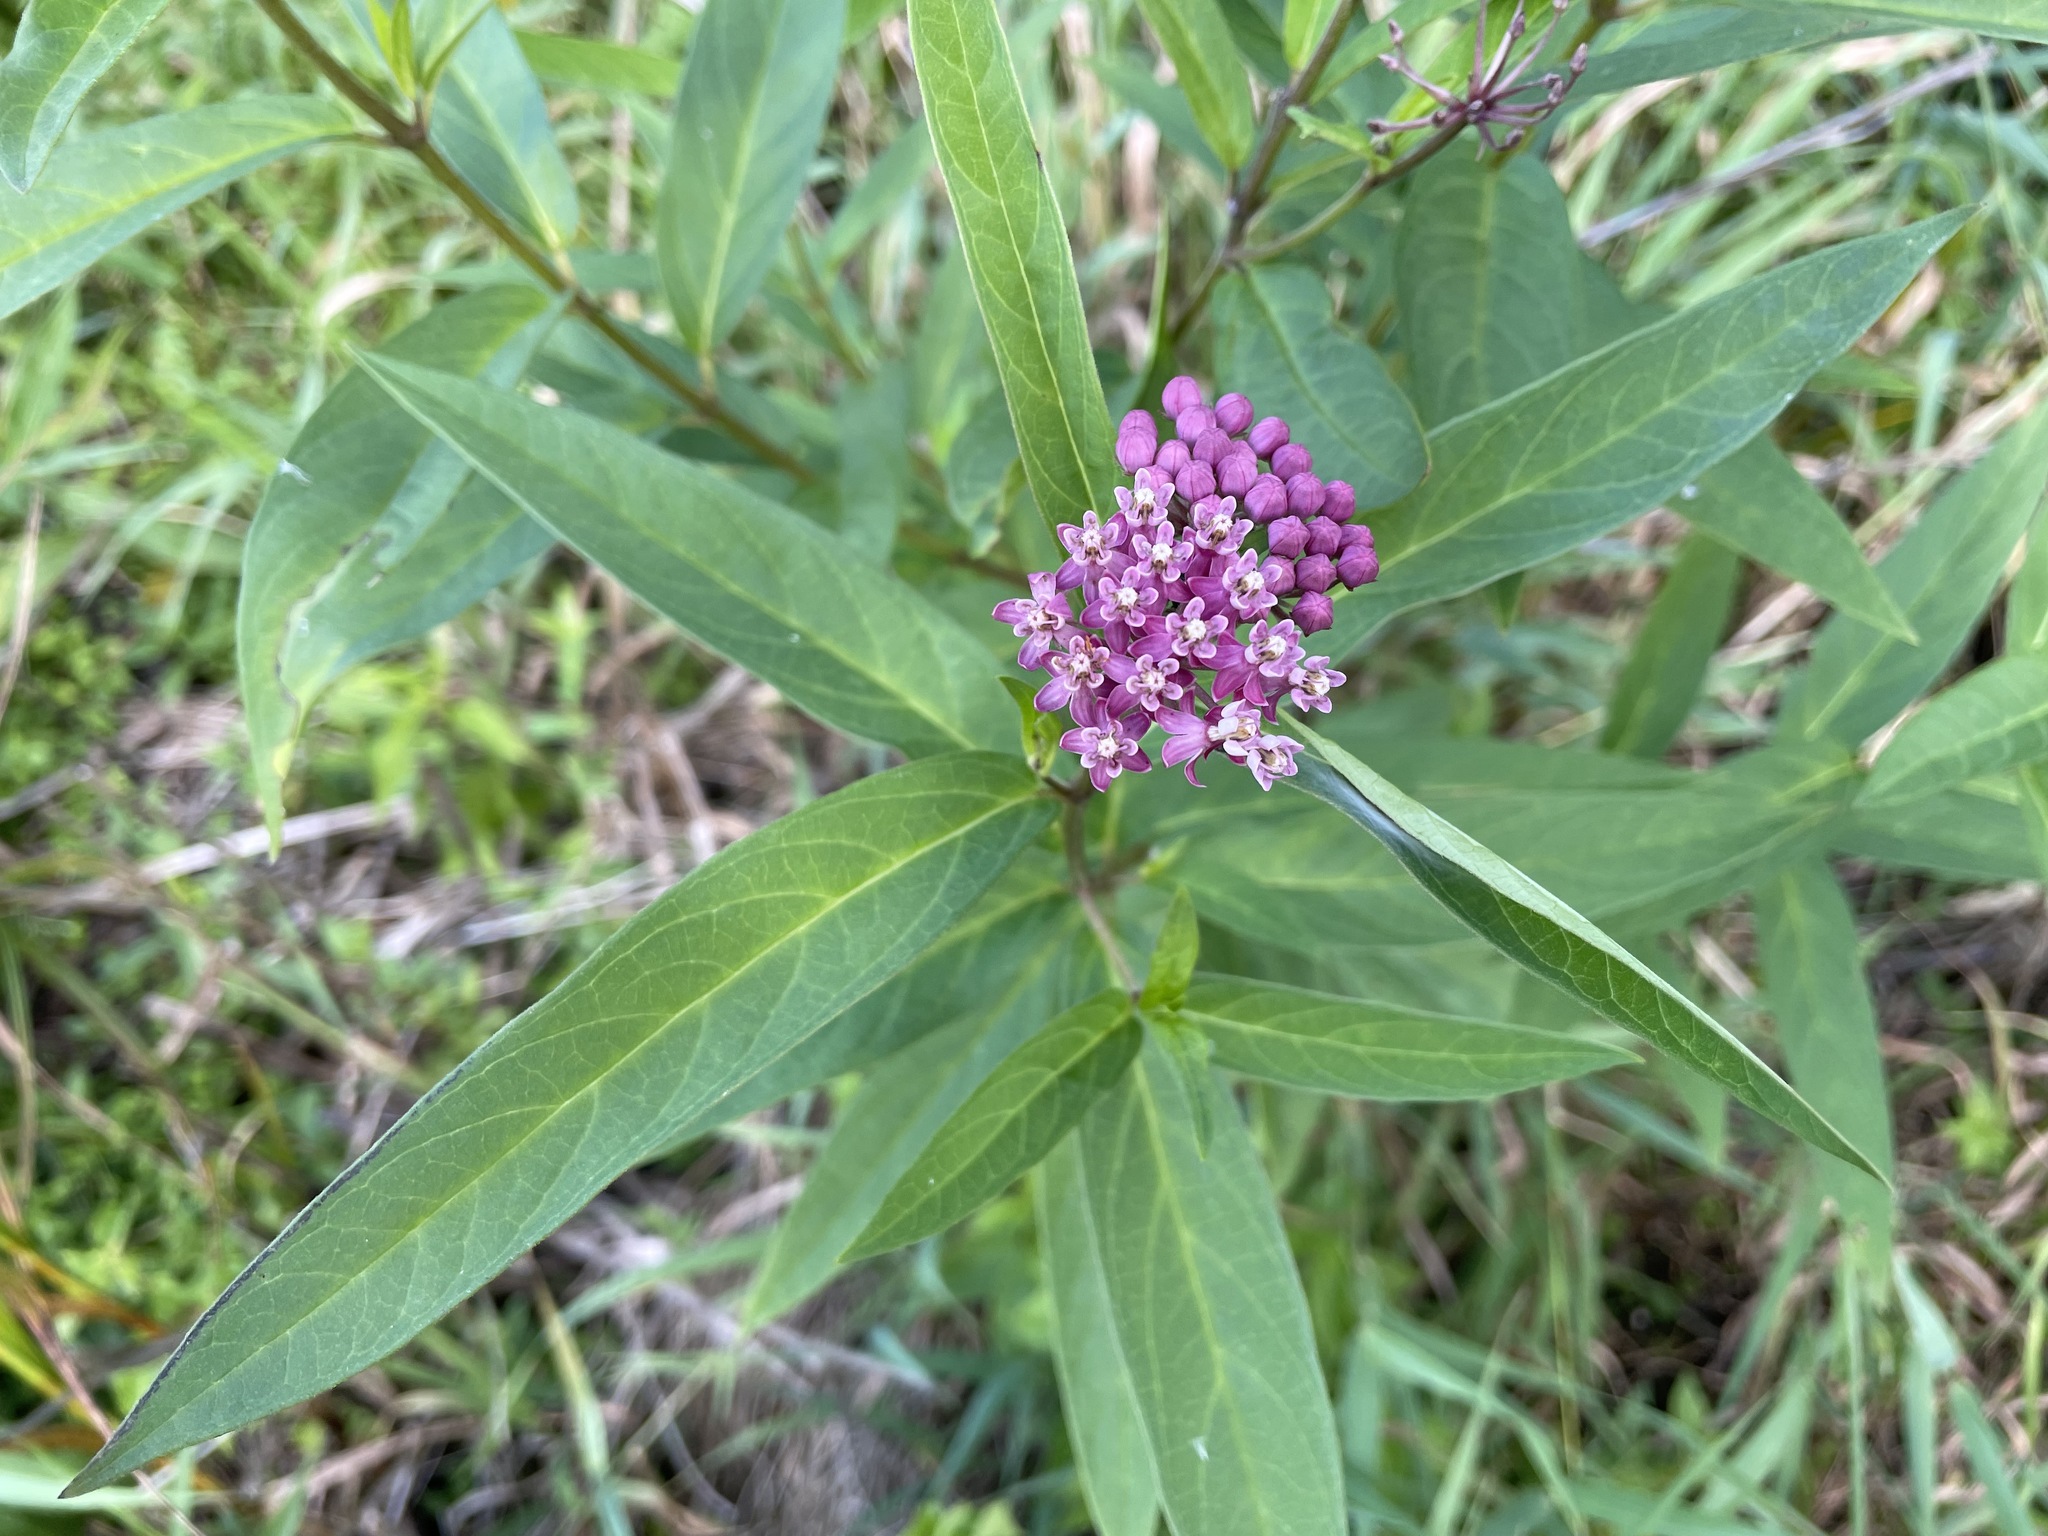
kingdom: Plantae
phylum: Tracheophyta
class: Magnoliopsida
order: Gentianales
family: Apocynaceae
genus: Asclepias
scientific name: Asclepias incarnata
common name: Swamp milkweed
